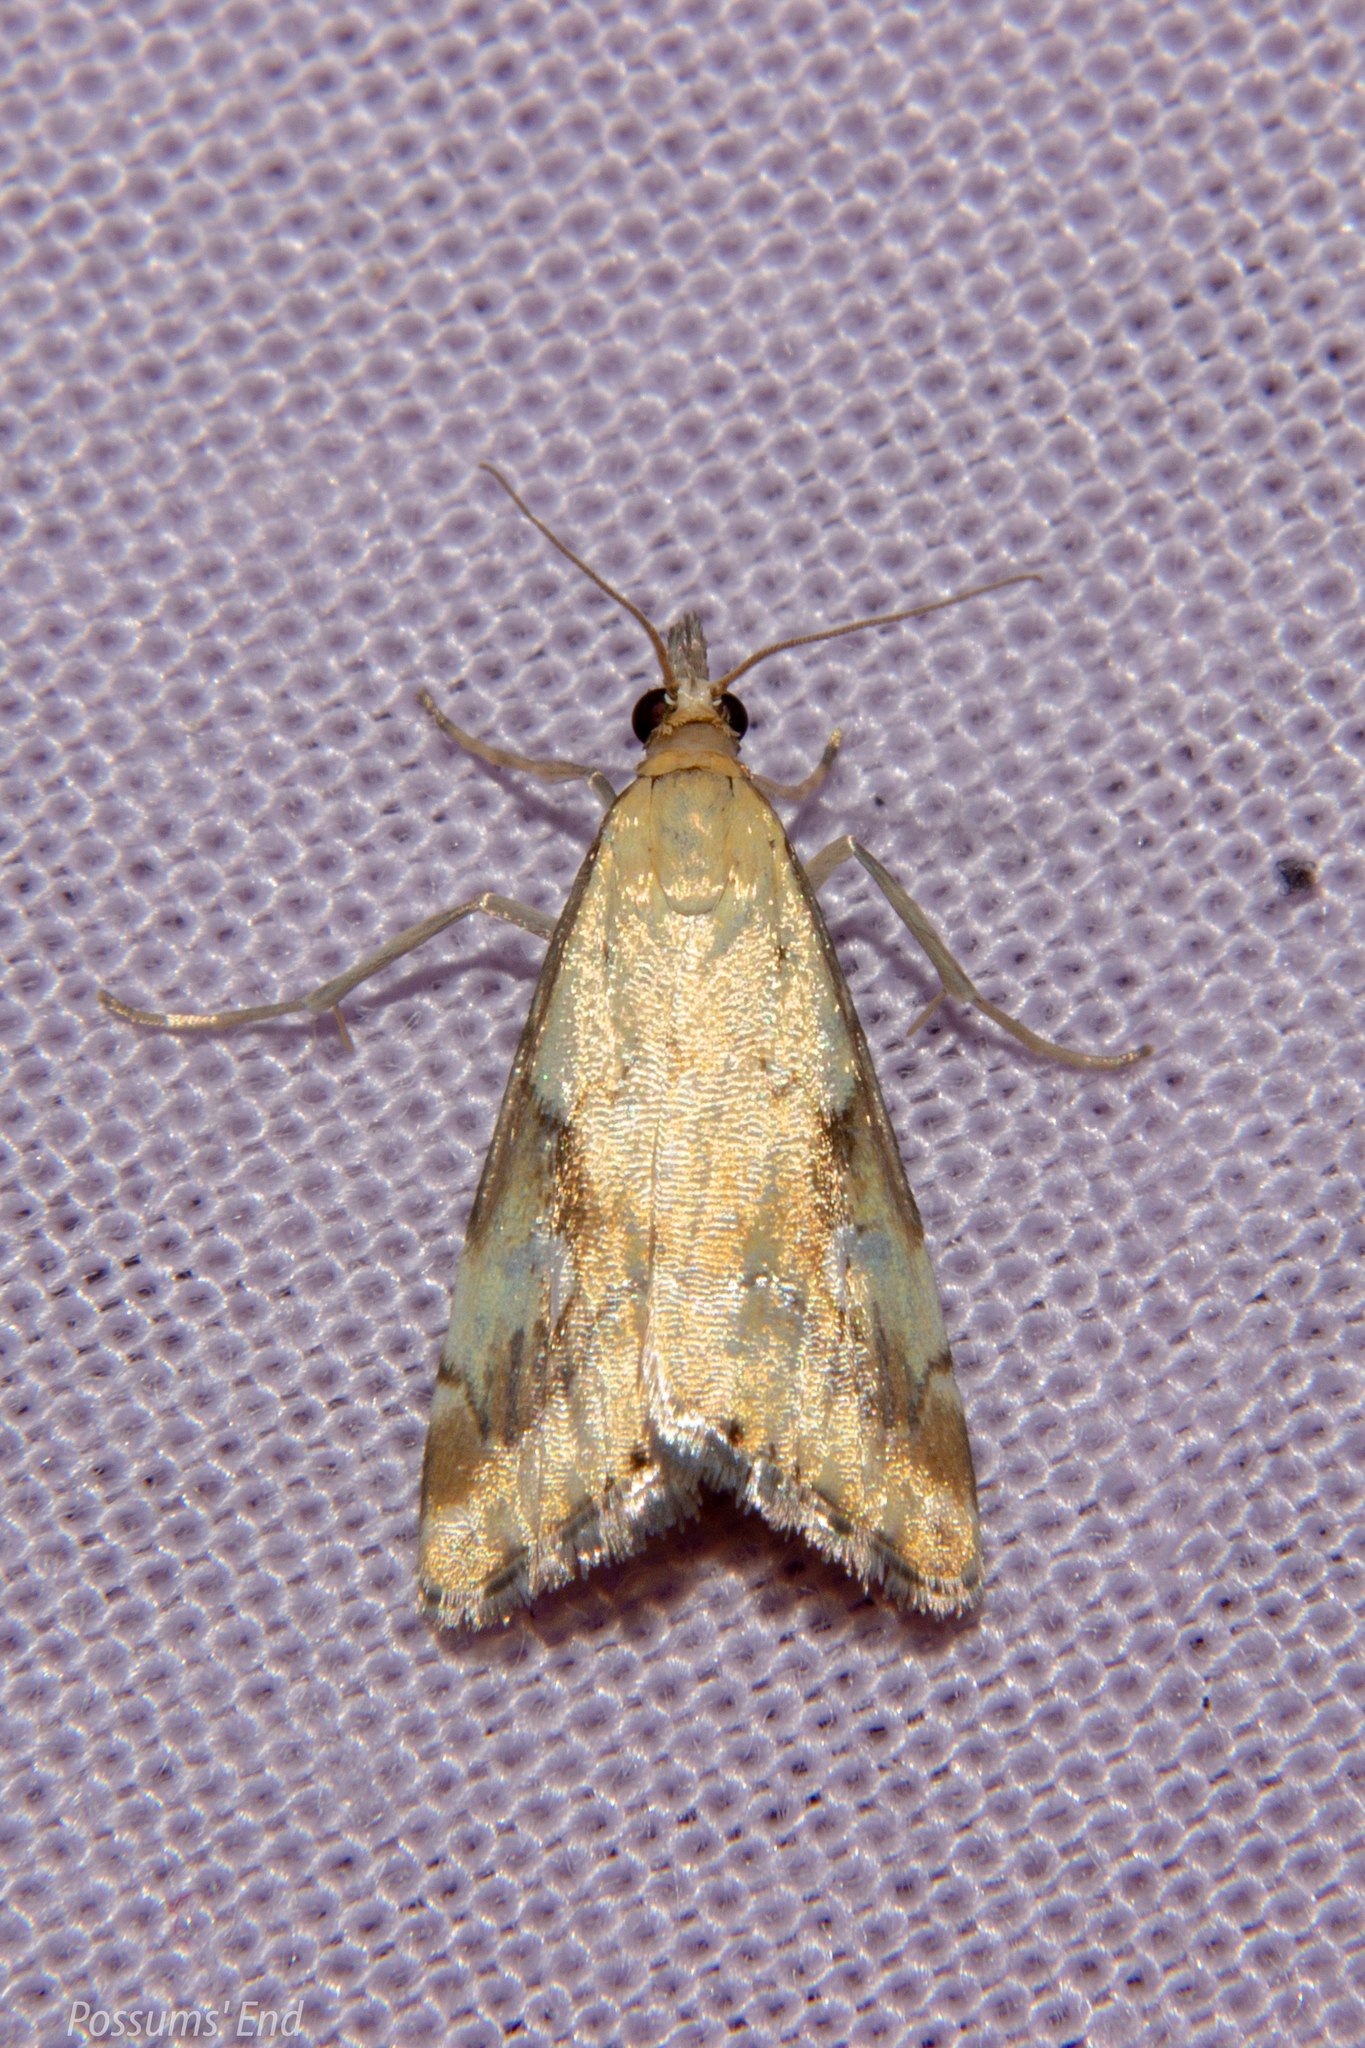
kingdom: Animalia
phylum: Arthropoda
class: Insecta
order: Lepidoptera
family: Crambidae
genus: Glaucocharis
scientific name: Glaucocharis lepidella
